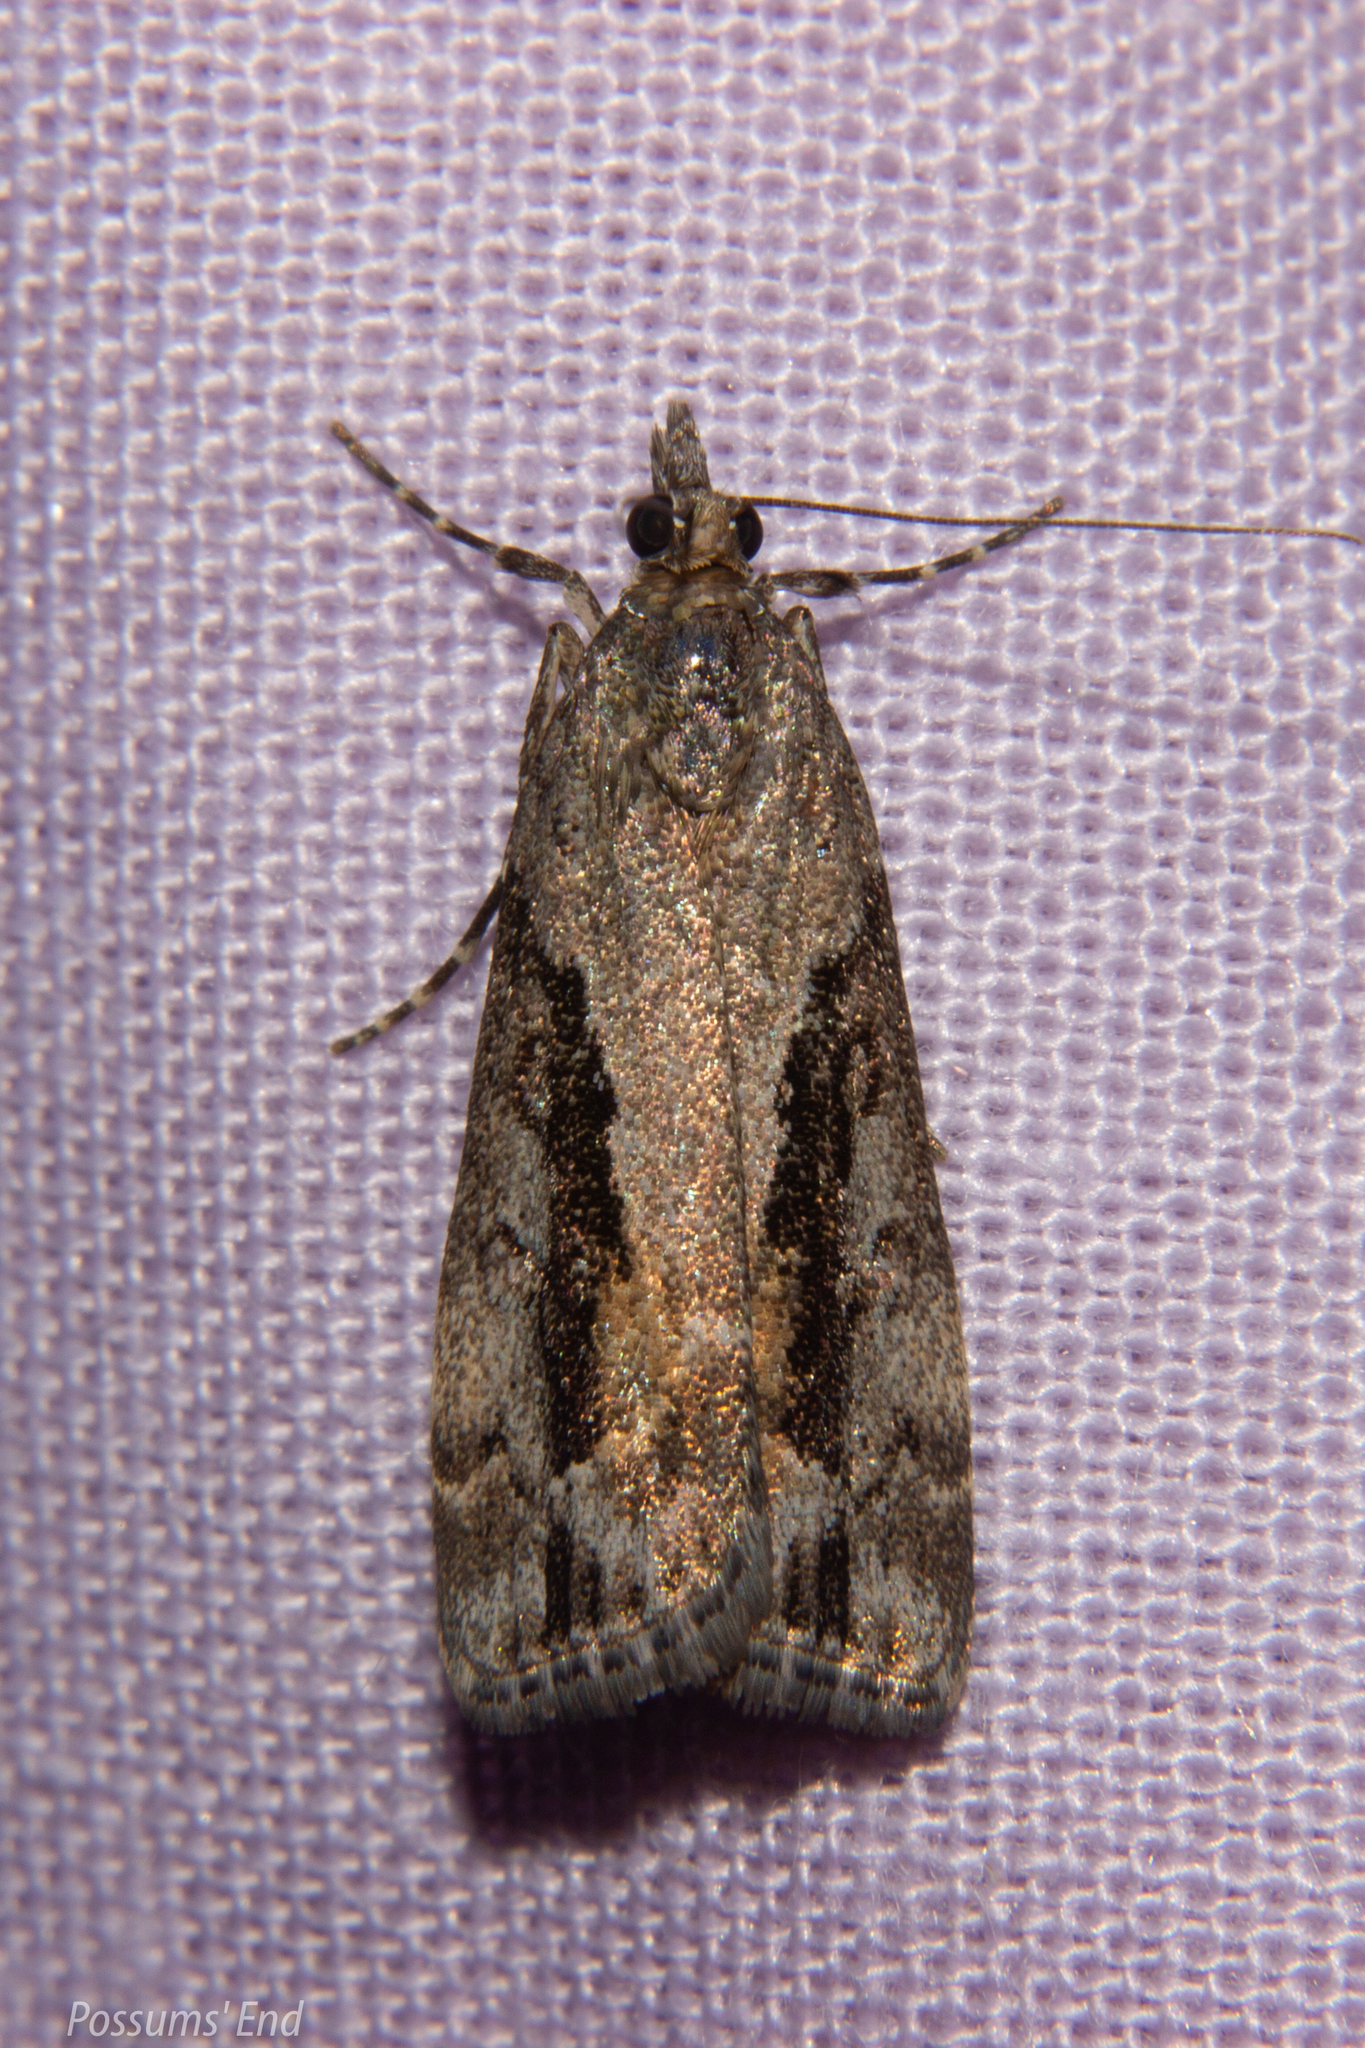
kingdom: Animalia
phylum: Arthropoda
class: Insecta
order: Lepidoptera
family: Crambidae
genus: Eudonia
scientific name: Eudonia submarginalis
